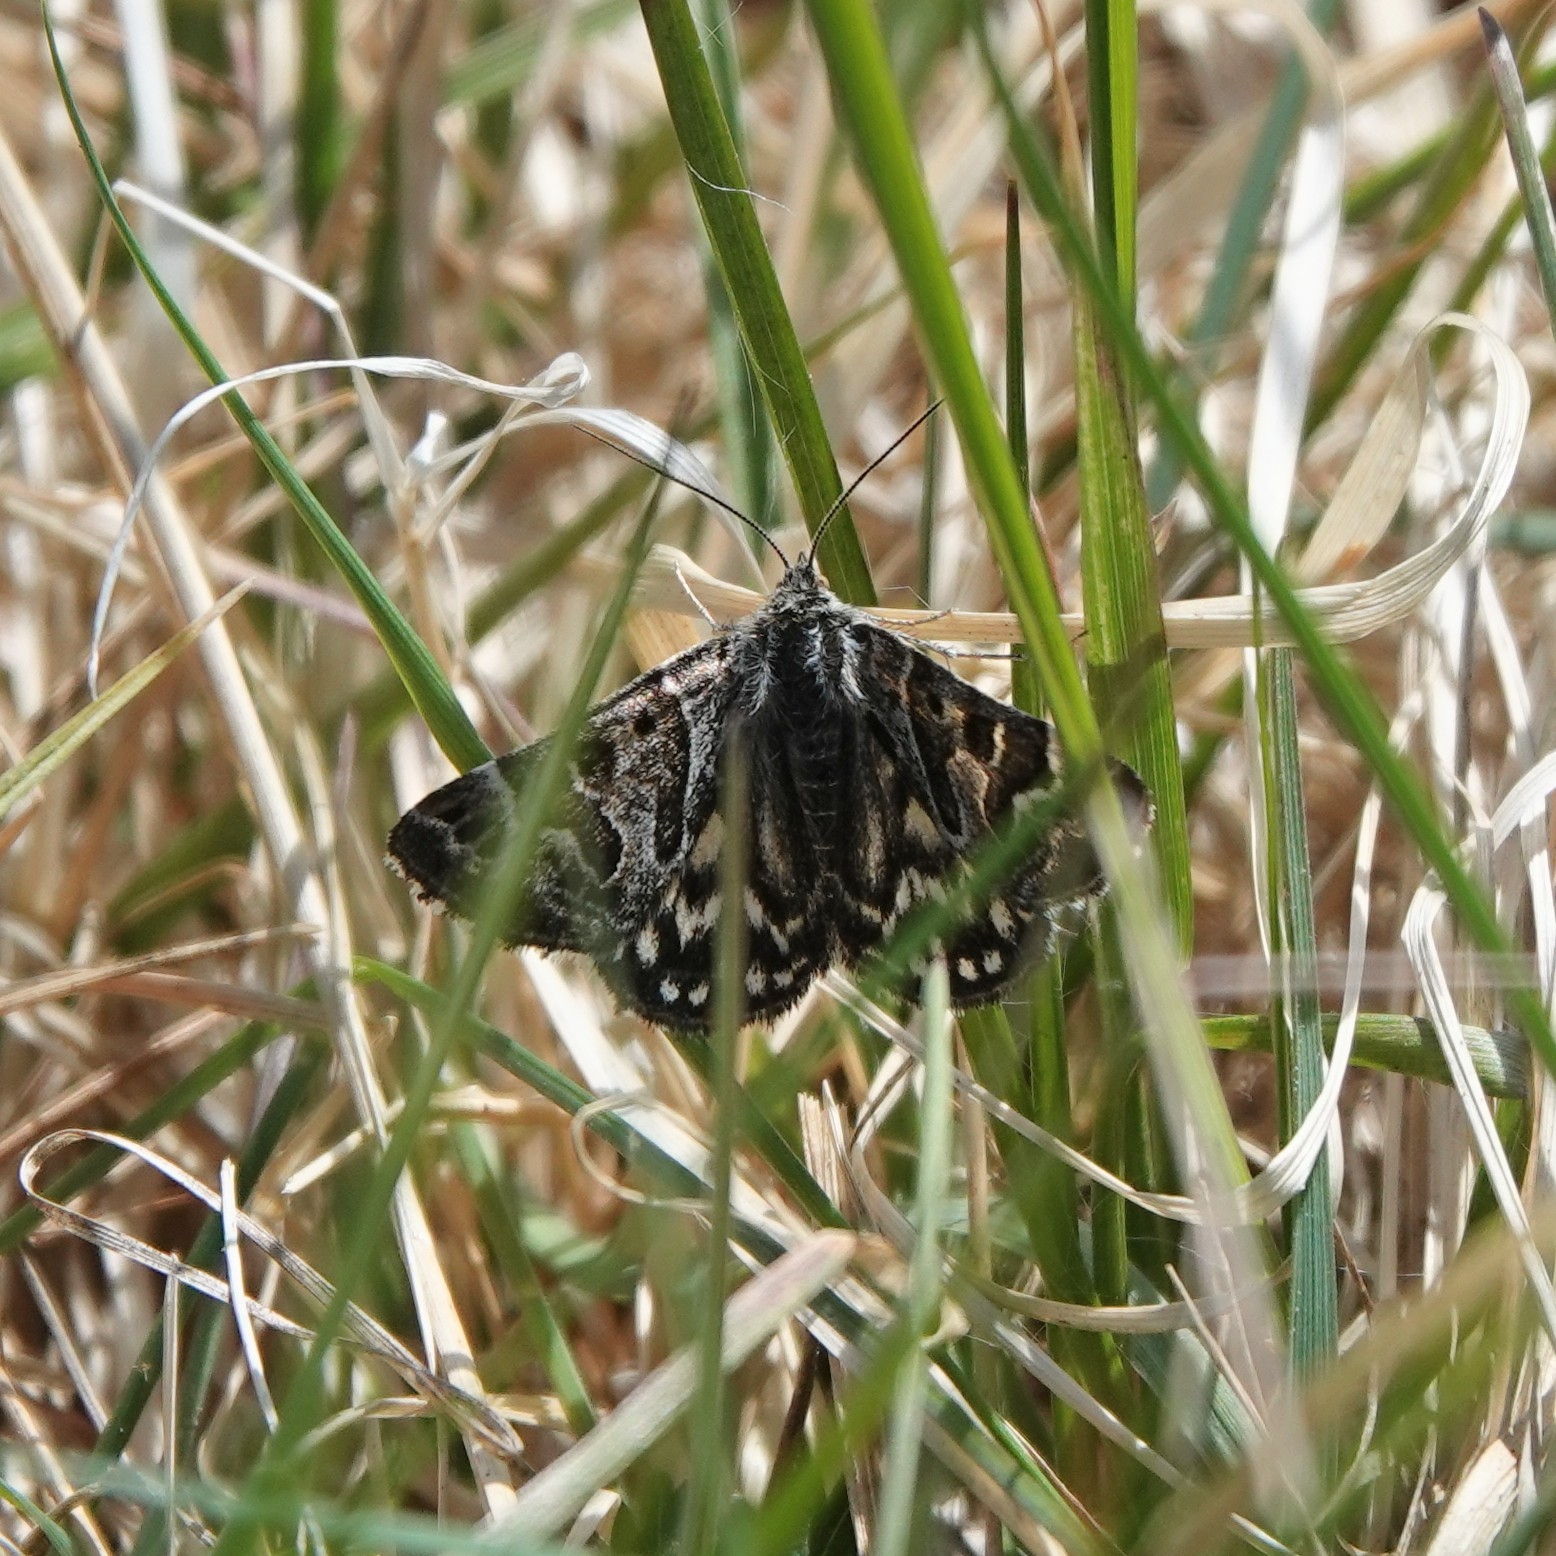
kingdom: Animalia
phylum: Arthropoda
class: Insecta
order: Lepidoptera
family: Erebidae
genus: Callistege
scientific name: Callistege mi
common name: Mother shipton
